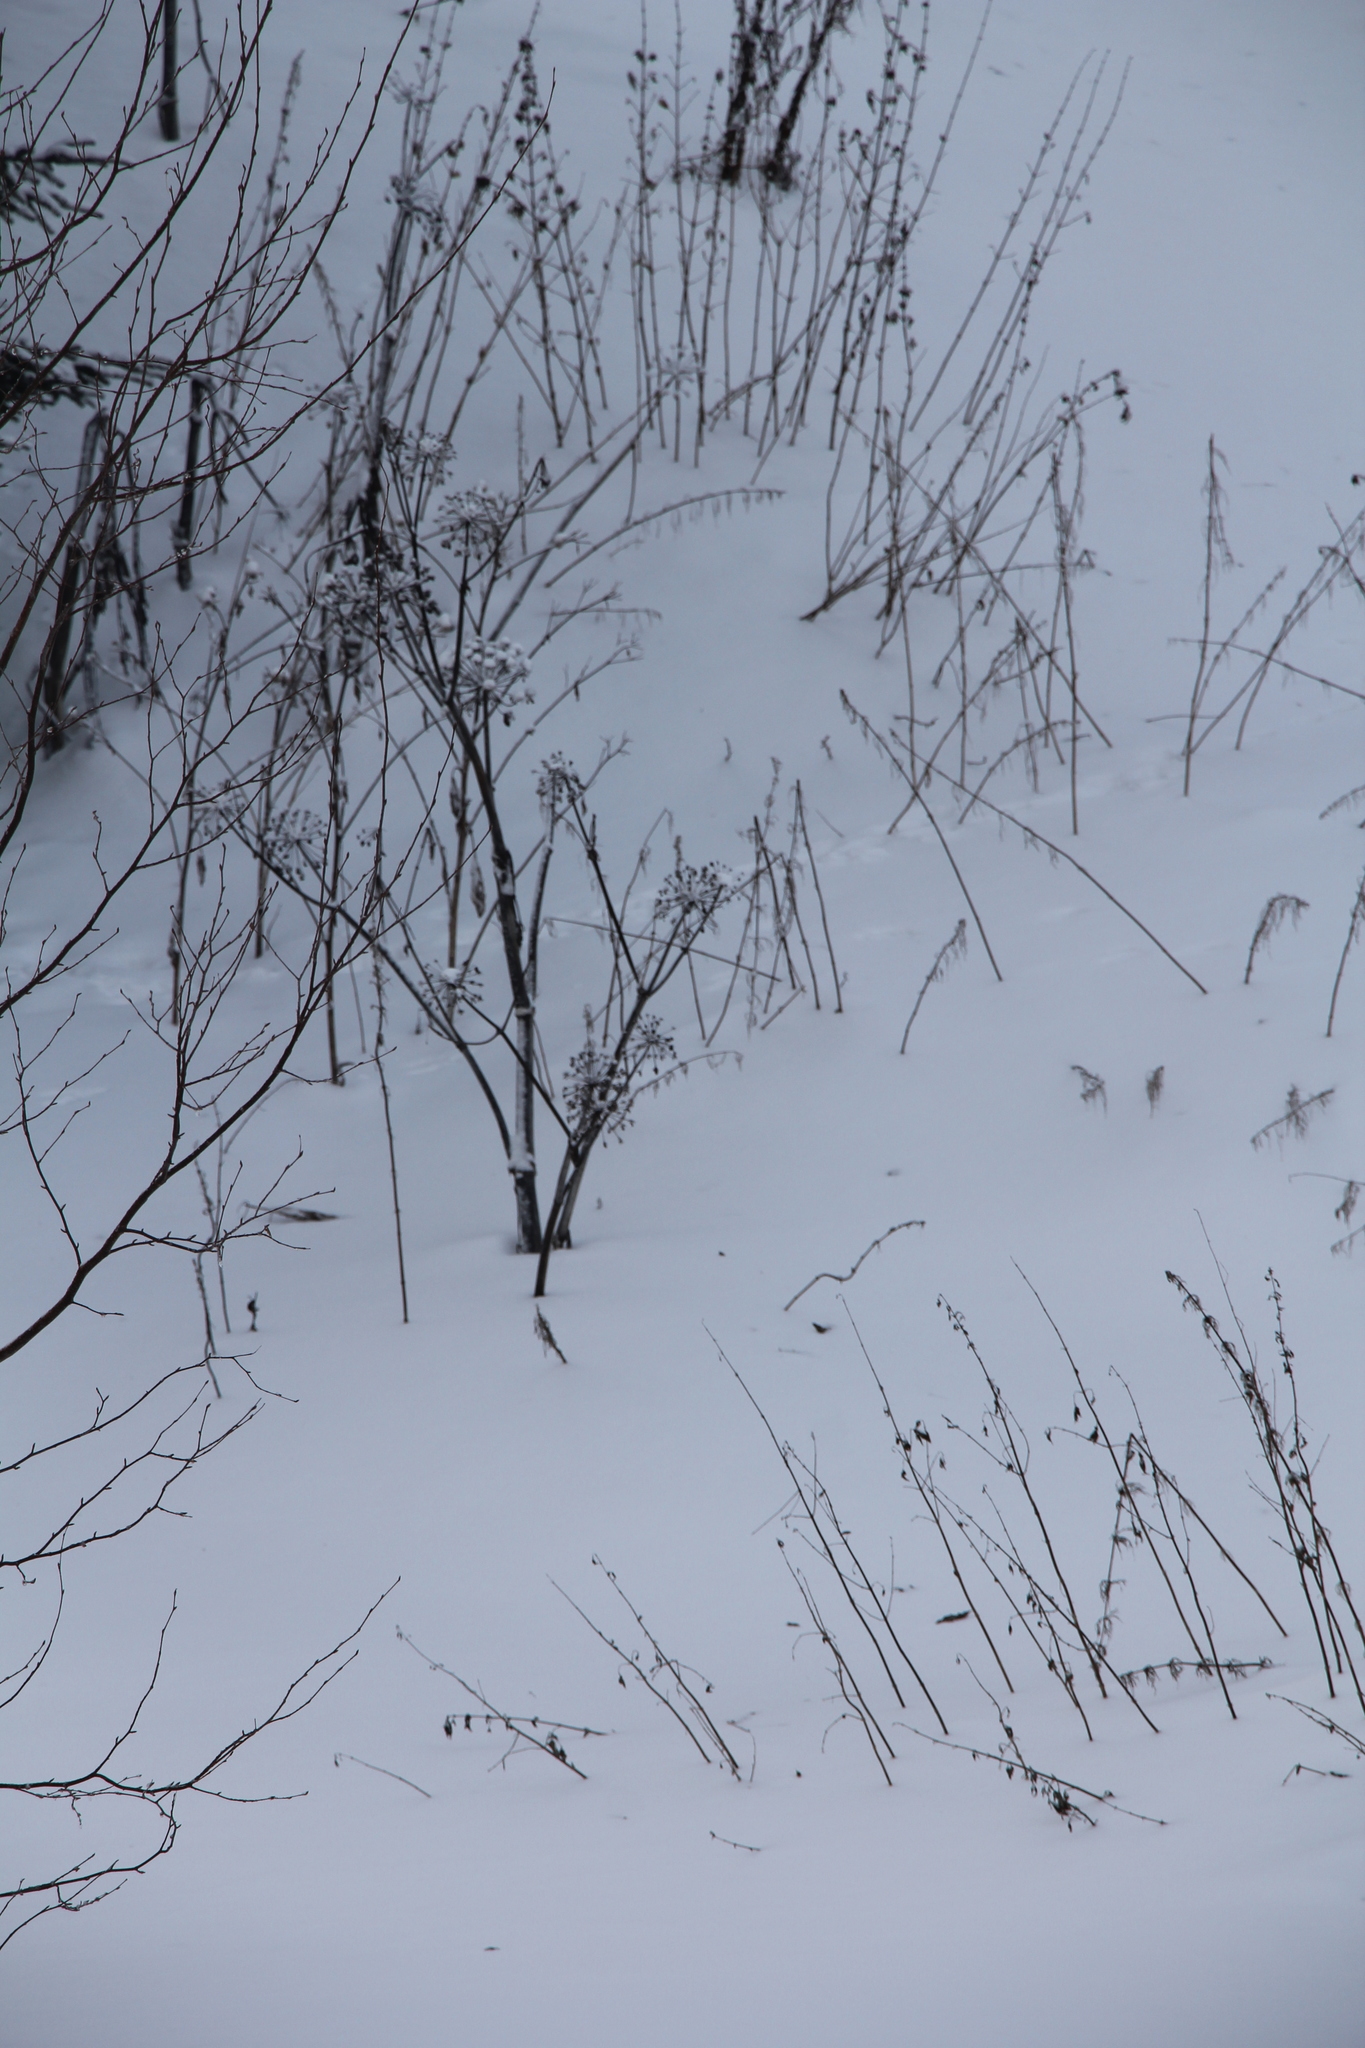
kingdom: Plantae
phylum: Tracheophyta
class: Magnoliopsida
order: Apiales
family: Apiaceae
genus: Angelica
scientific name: Angelica decurrens
